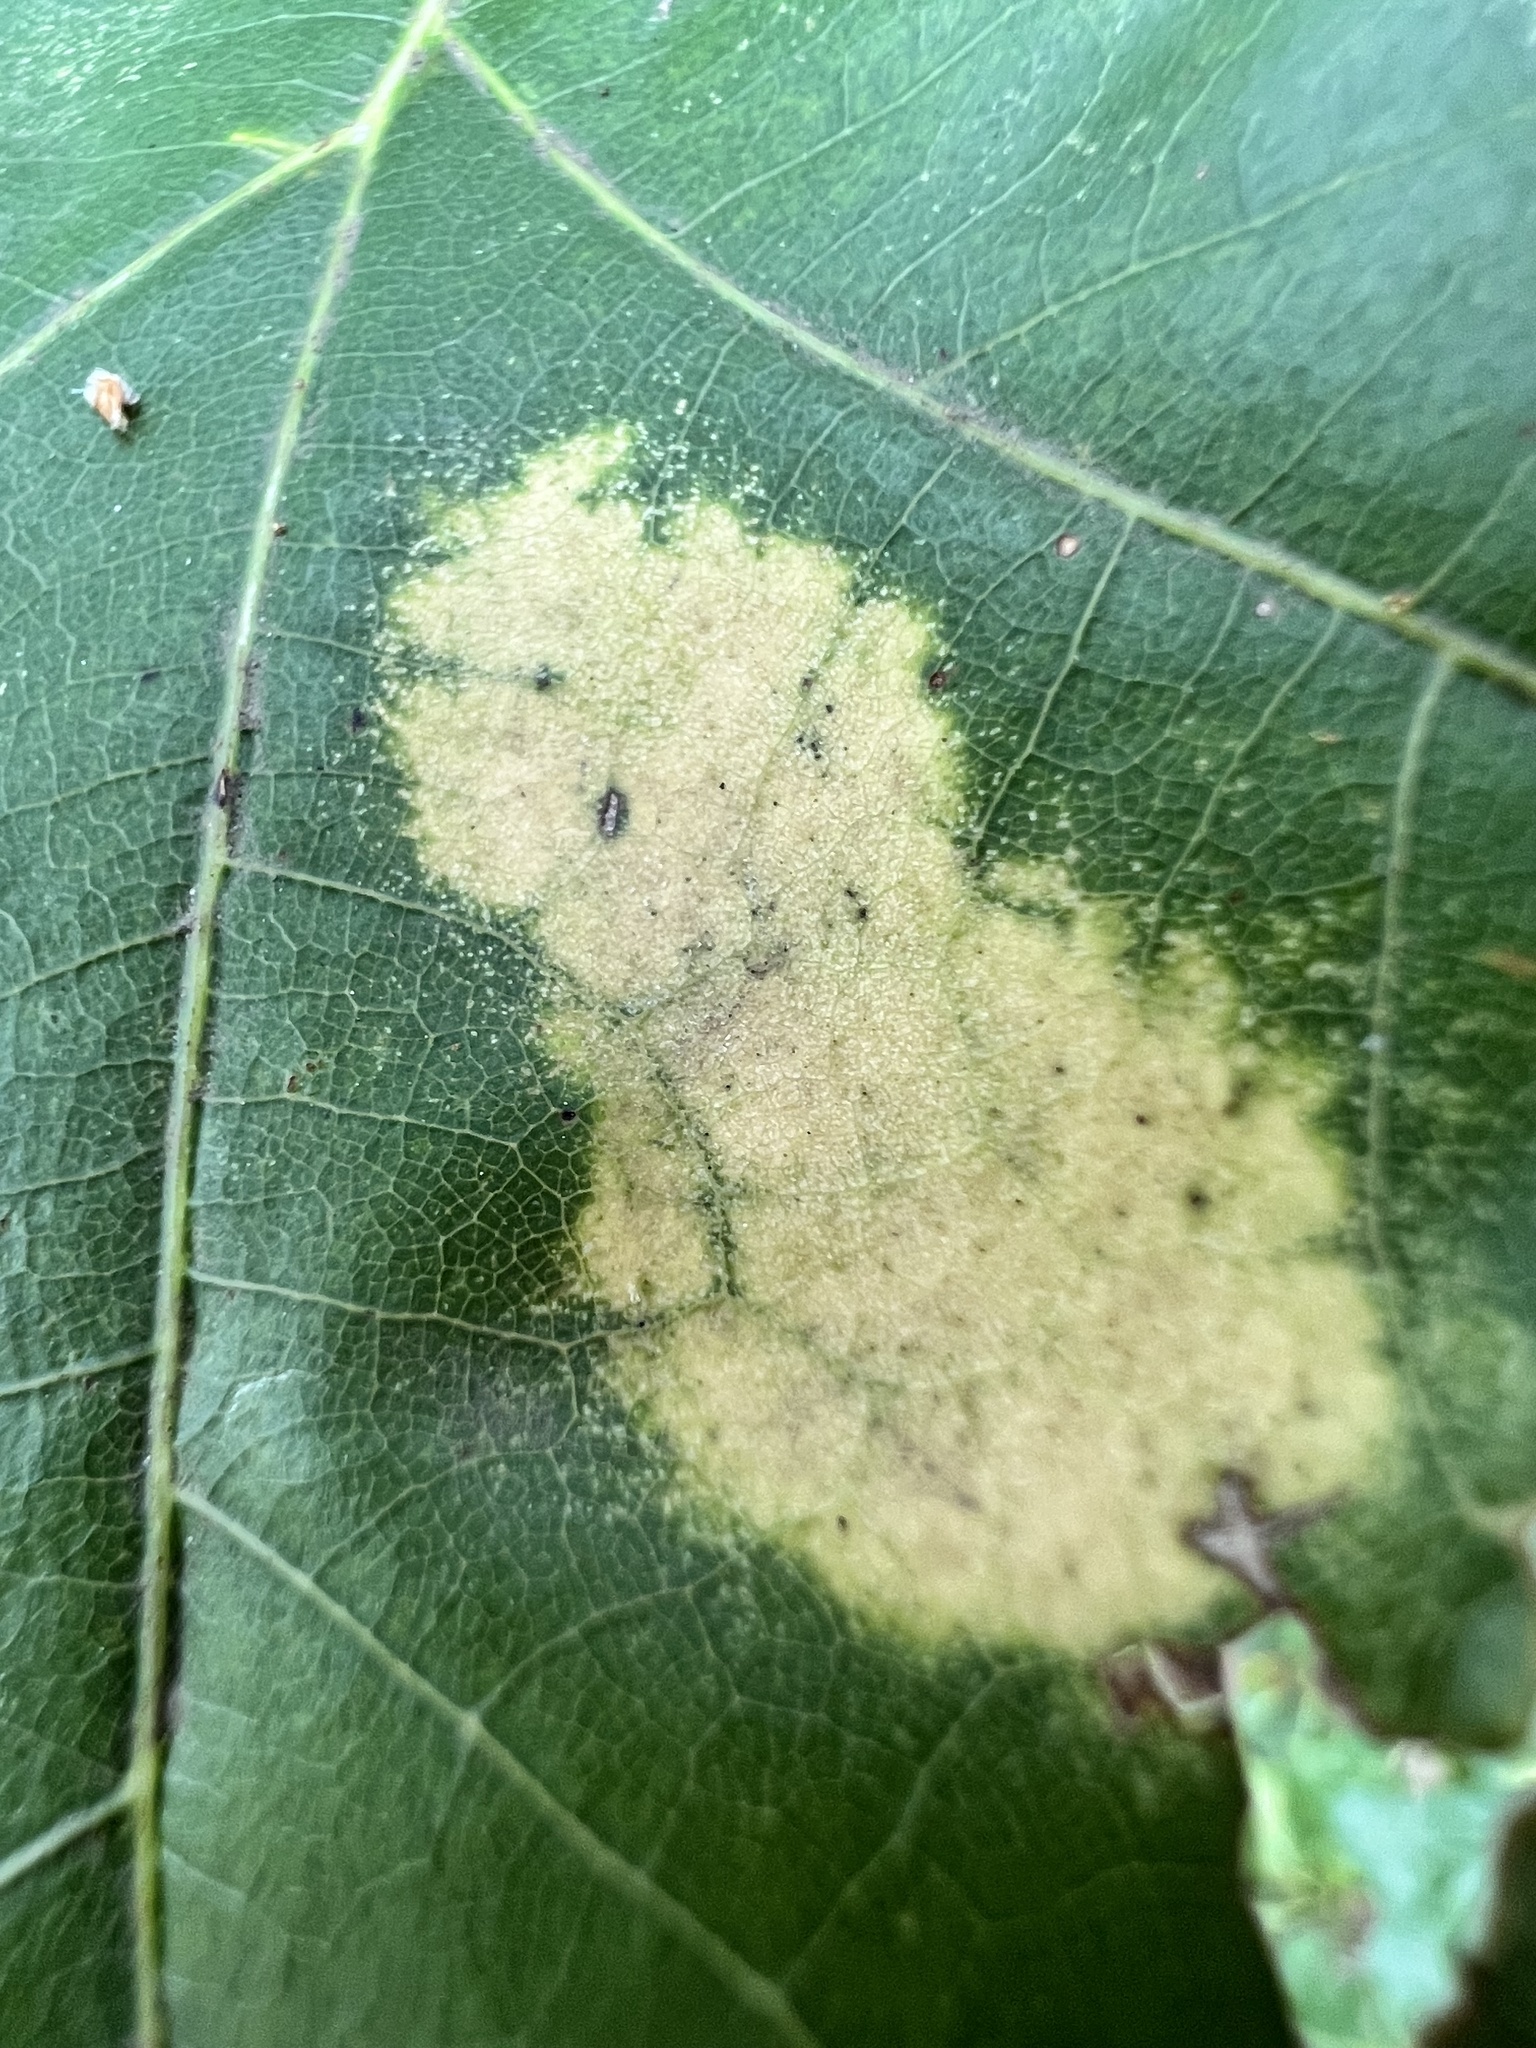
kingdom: Fungi
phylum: Ascomycota
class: Taphrinomycetes
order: Taphrinales
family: Taphrinaceae
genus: Taphrina
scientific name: Taphrina caerulescens
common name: Oak leaf blister
